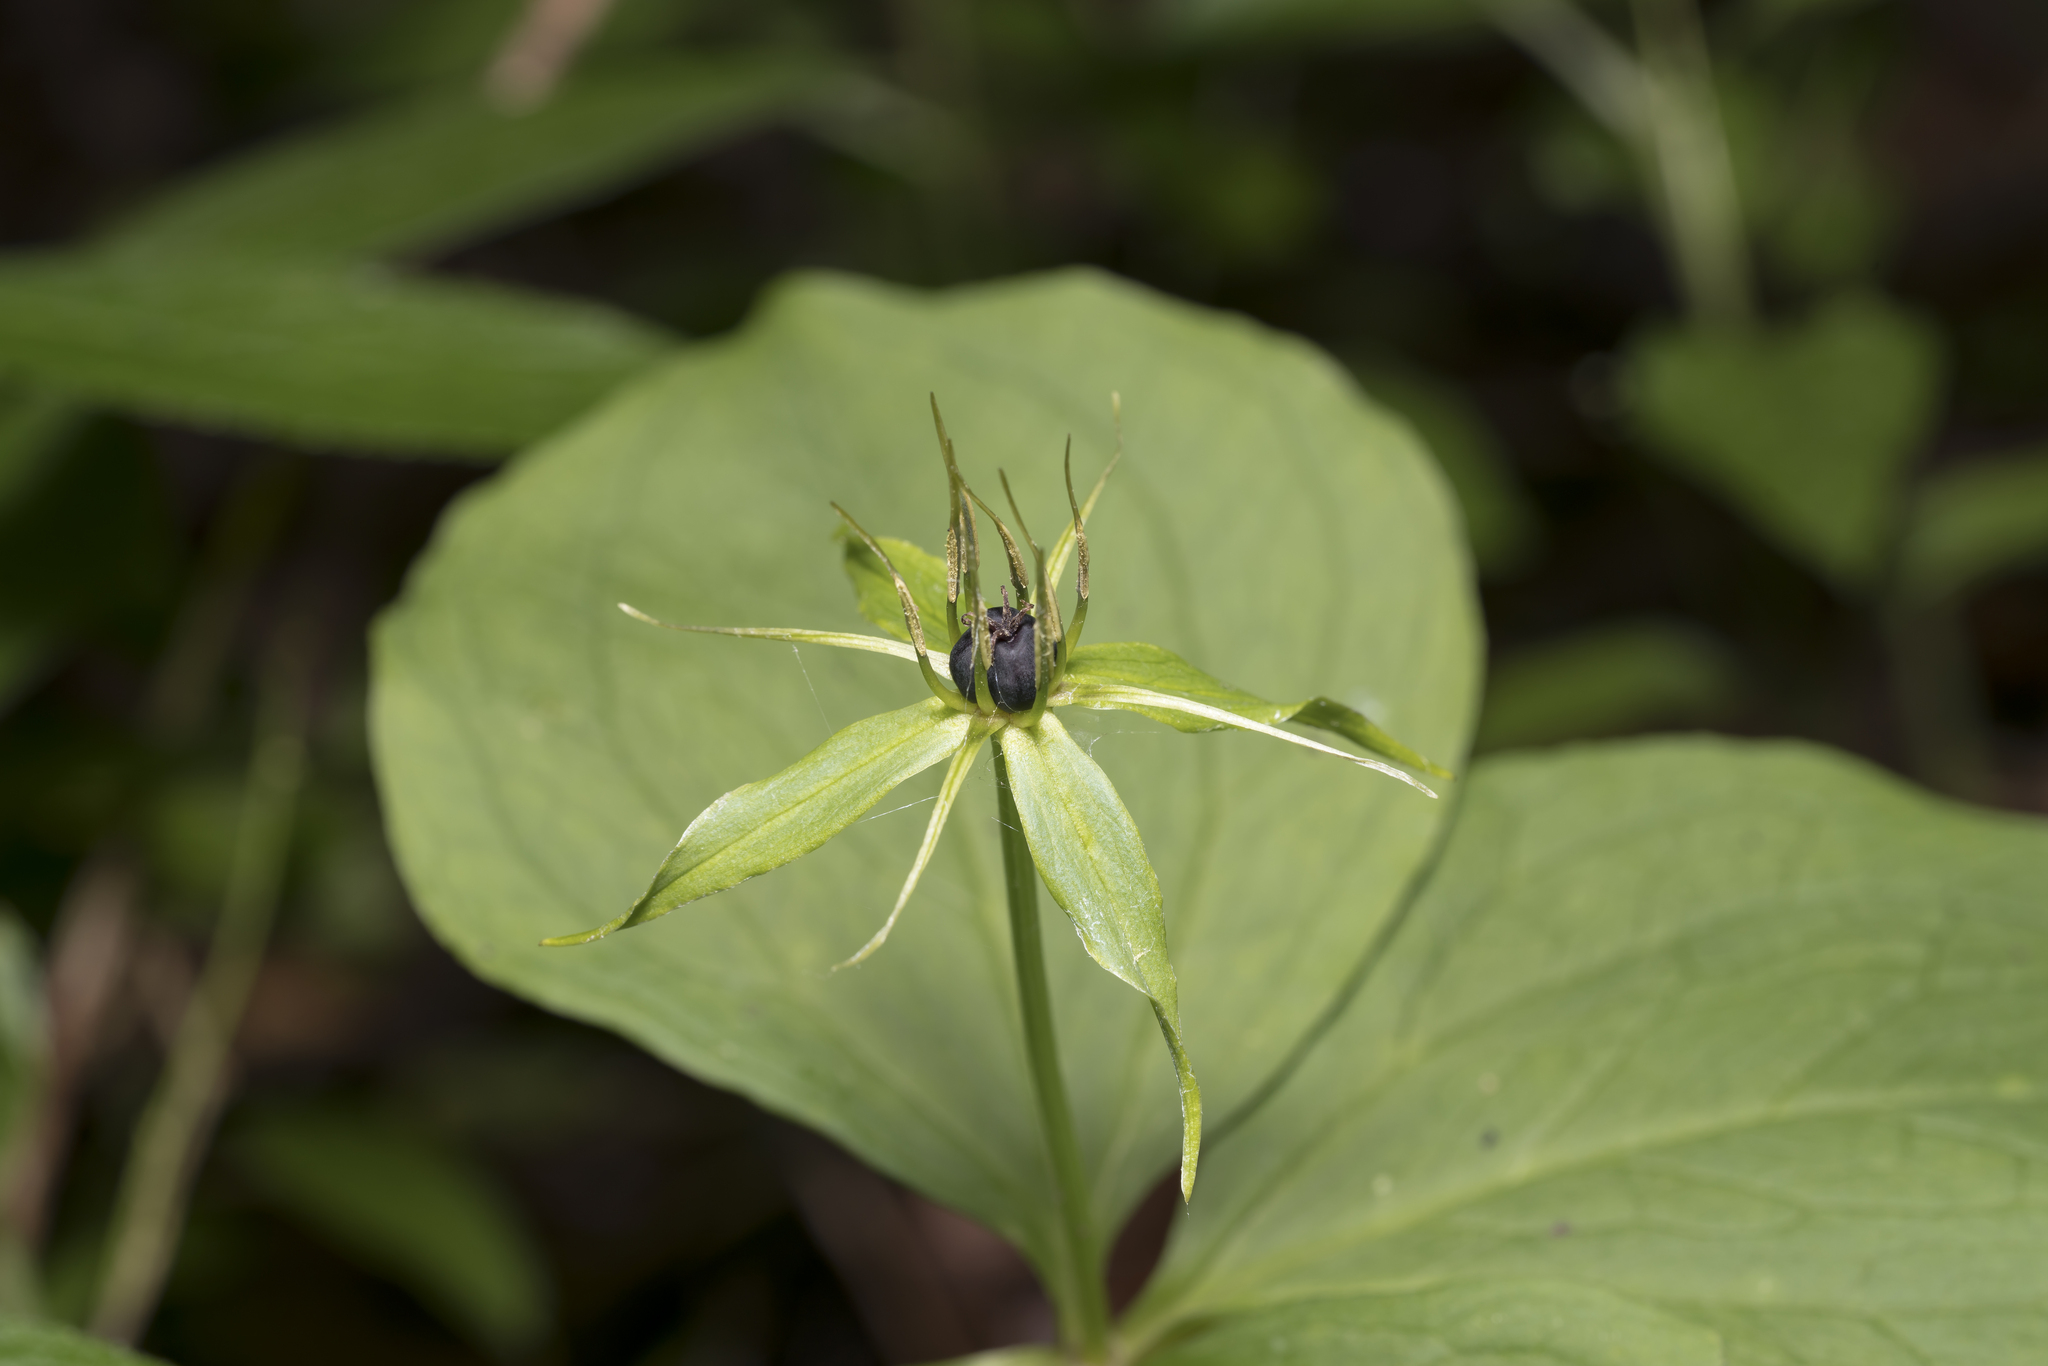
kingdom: Plantae
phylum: Tracheophyta
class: Liliopsida
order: Liliales
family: Melanthiaceae
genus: Paris
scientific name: Paris quadrifolia
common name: Herb-paris
